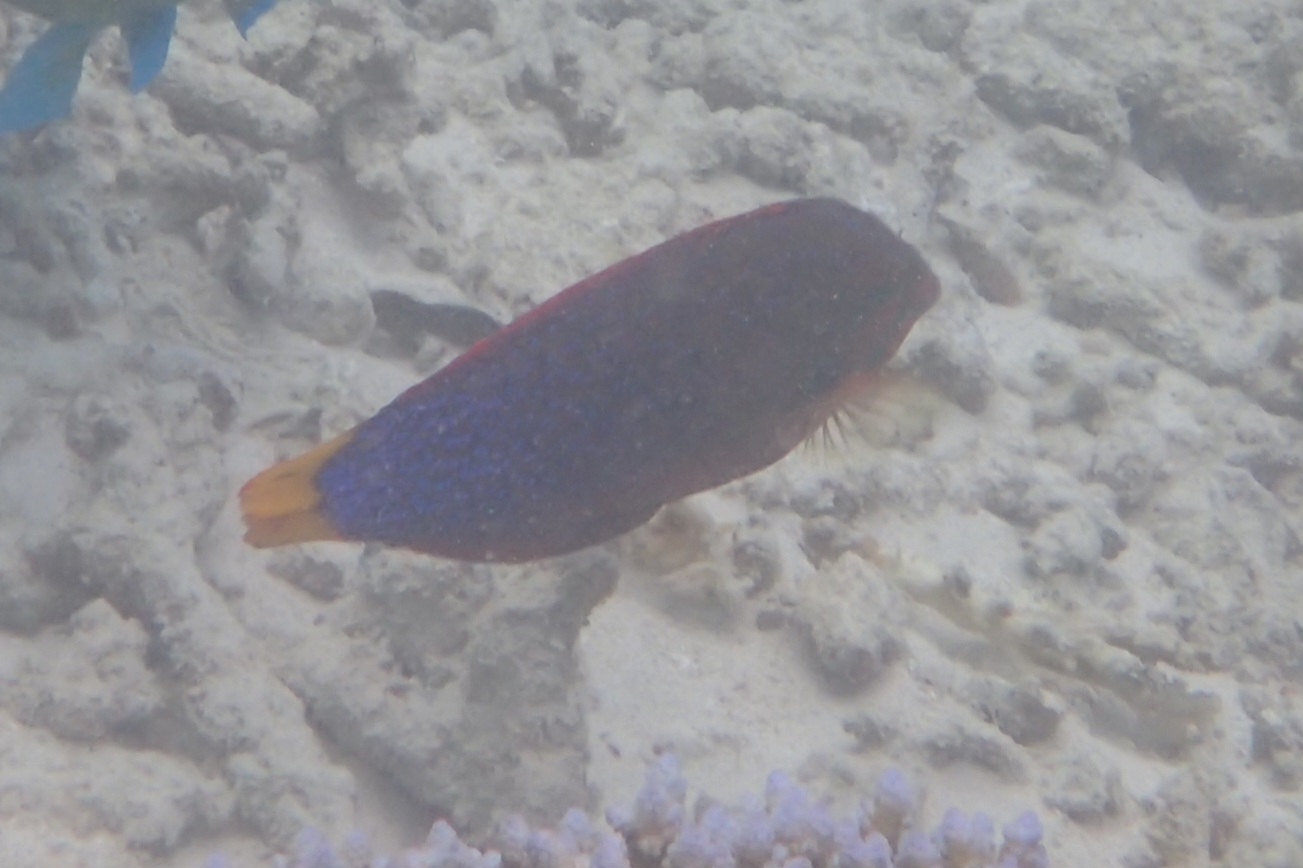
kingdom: Animalia
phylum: Chordata
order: Perciformes
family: Labridae
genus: Coris
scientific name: Coris gaimard
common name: Yellowtail coris
